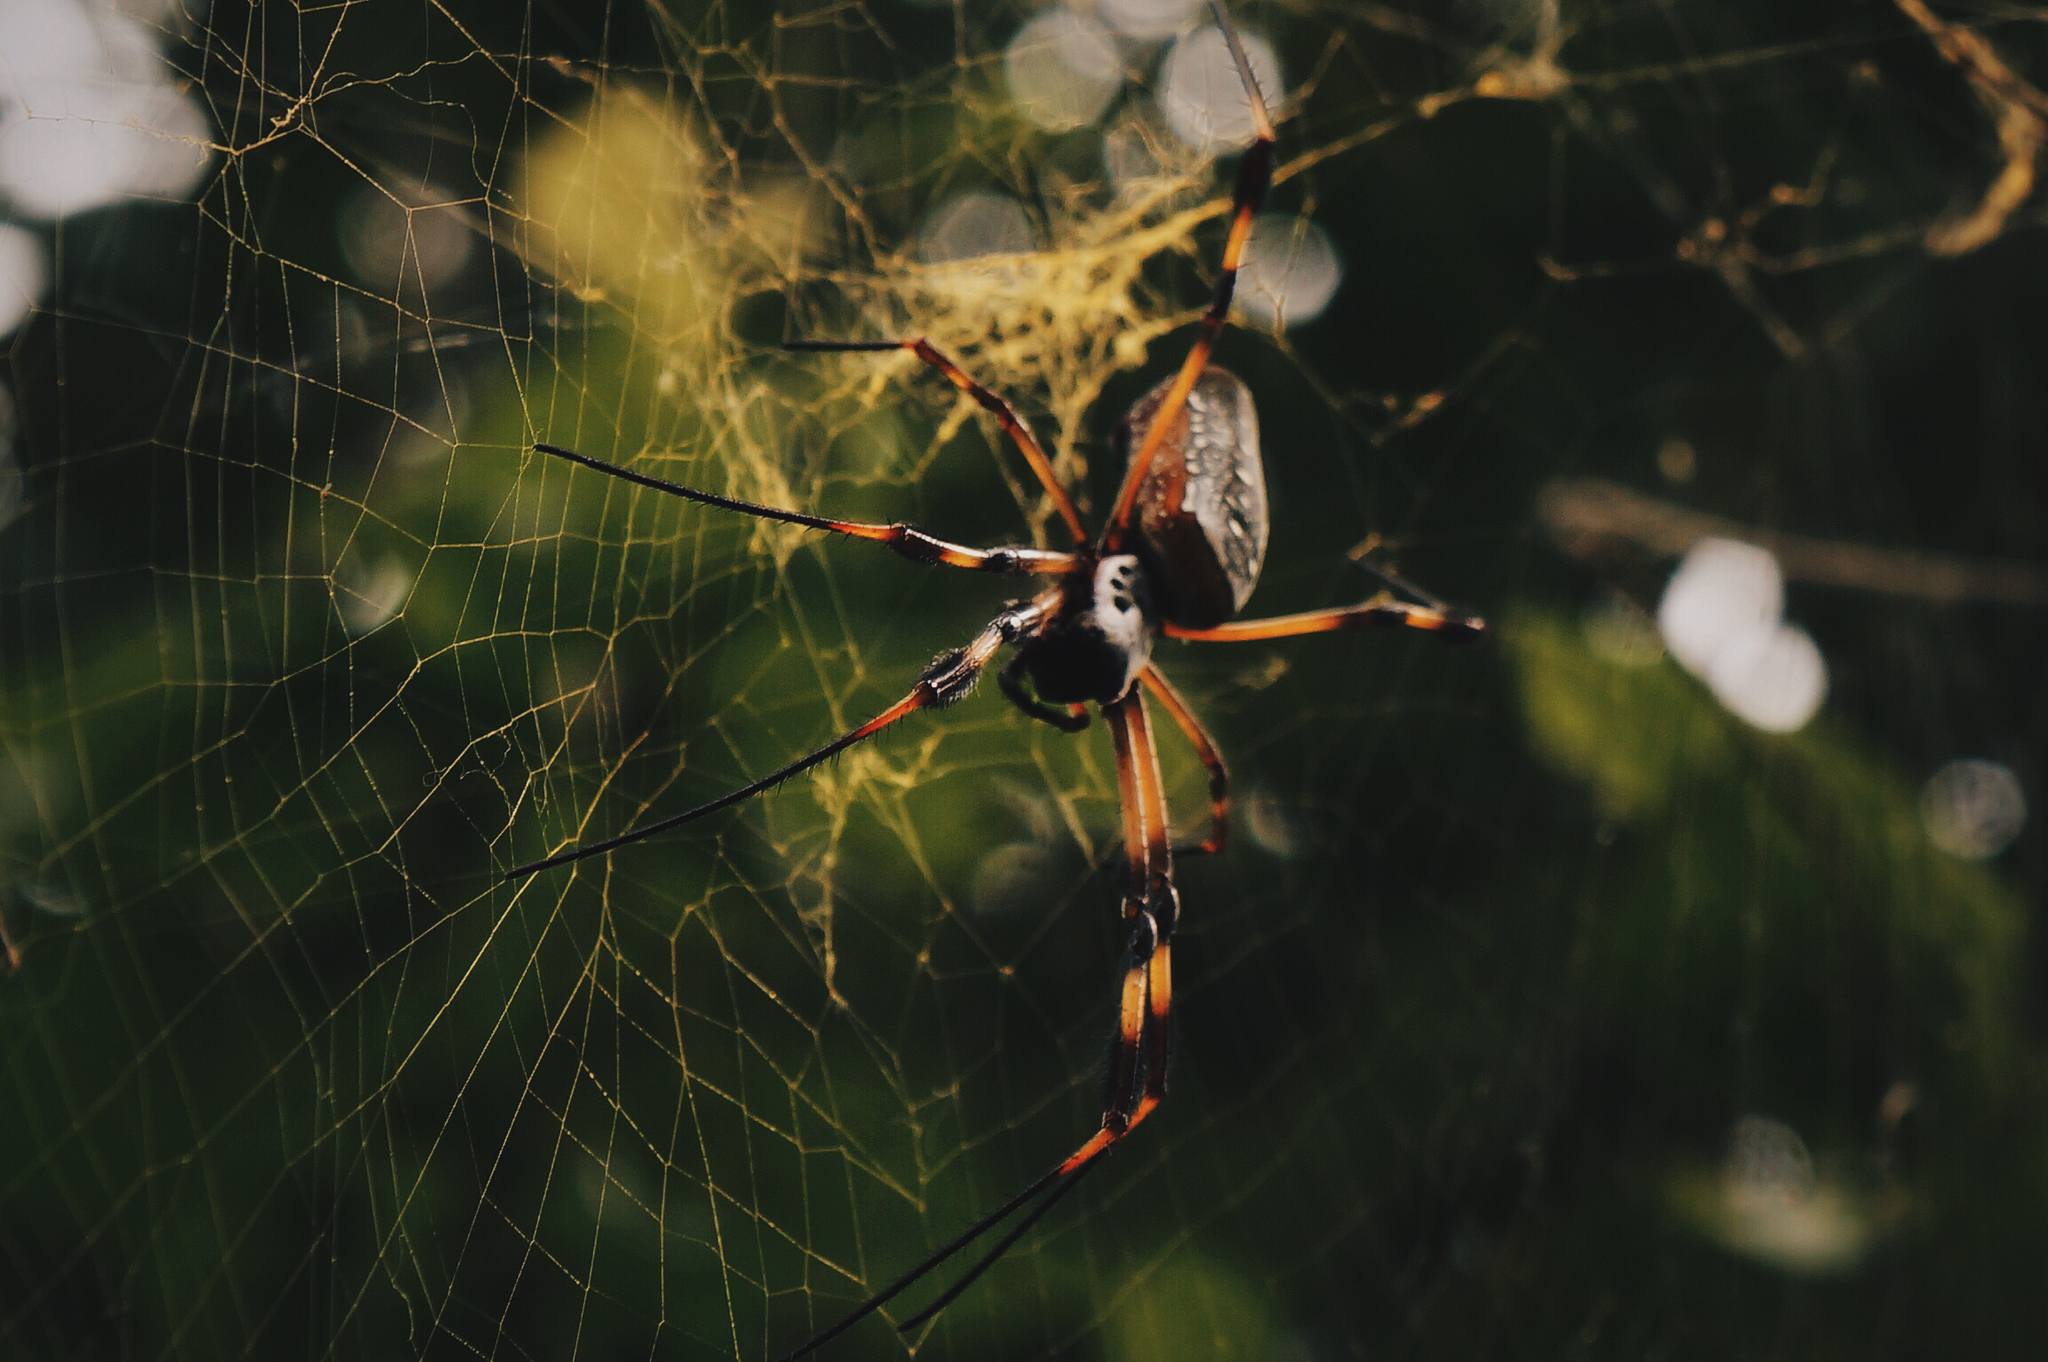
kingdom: Animalia
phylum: Arthropoda
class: Arachnida
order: Araneae
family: Araneidae
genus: Trichonephila
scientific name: Trichonephila clavipes
